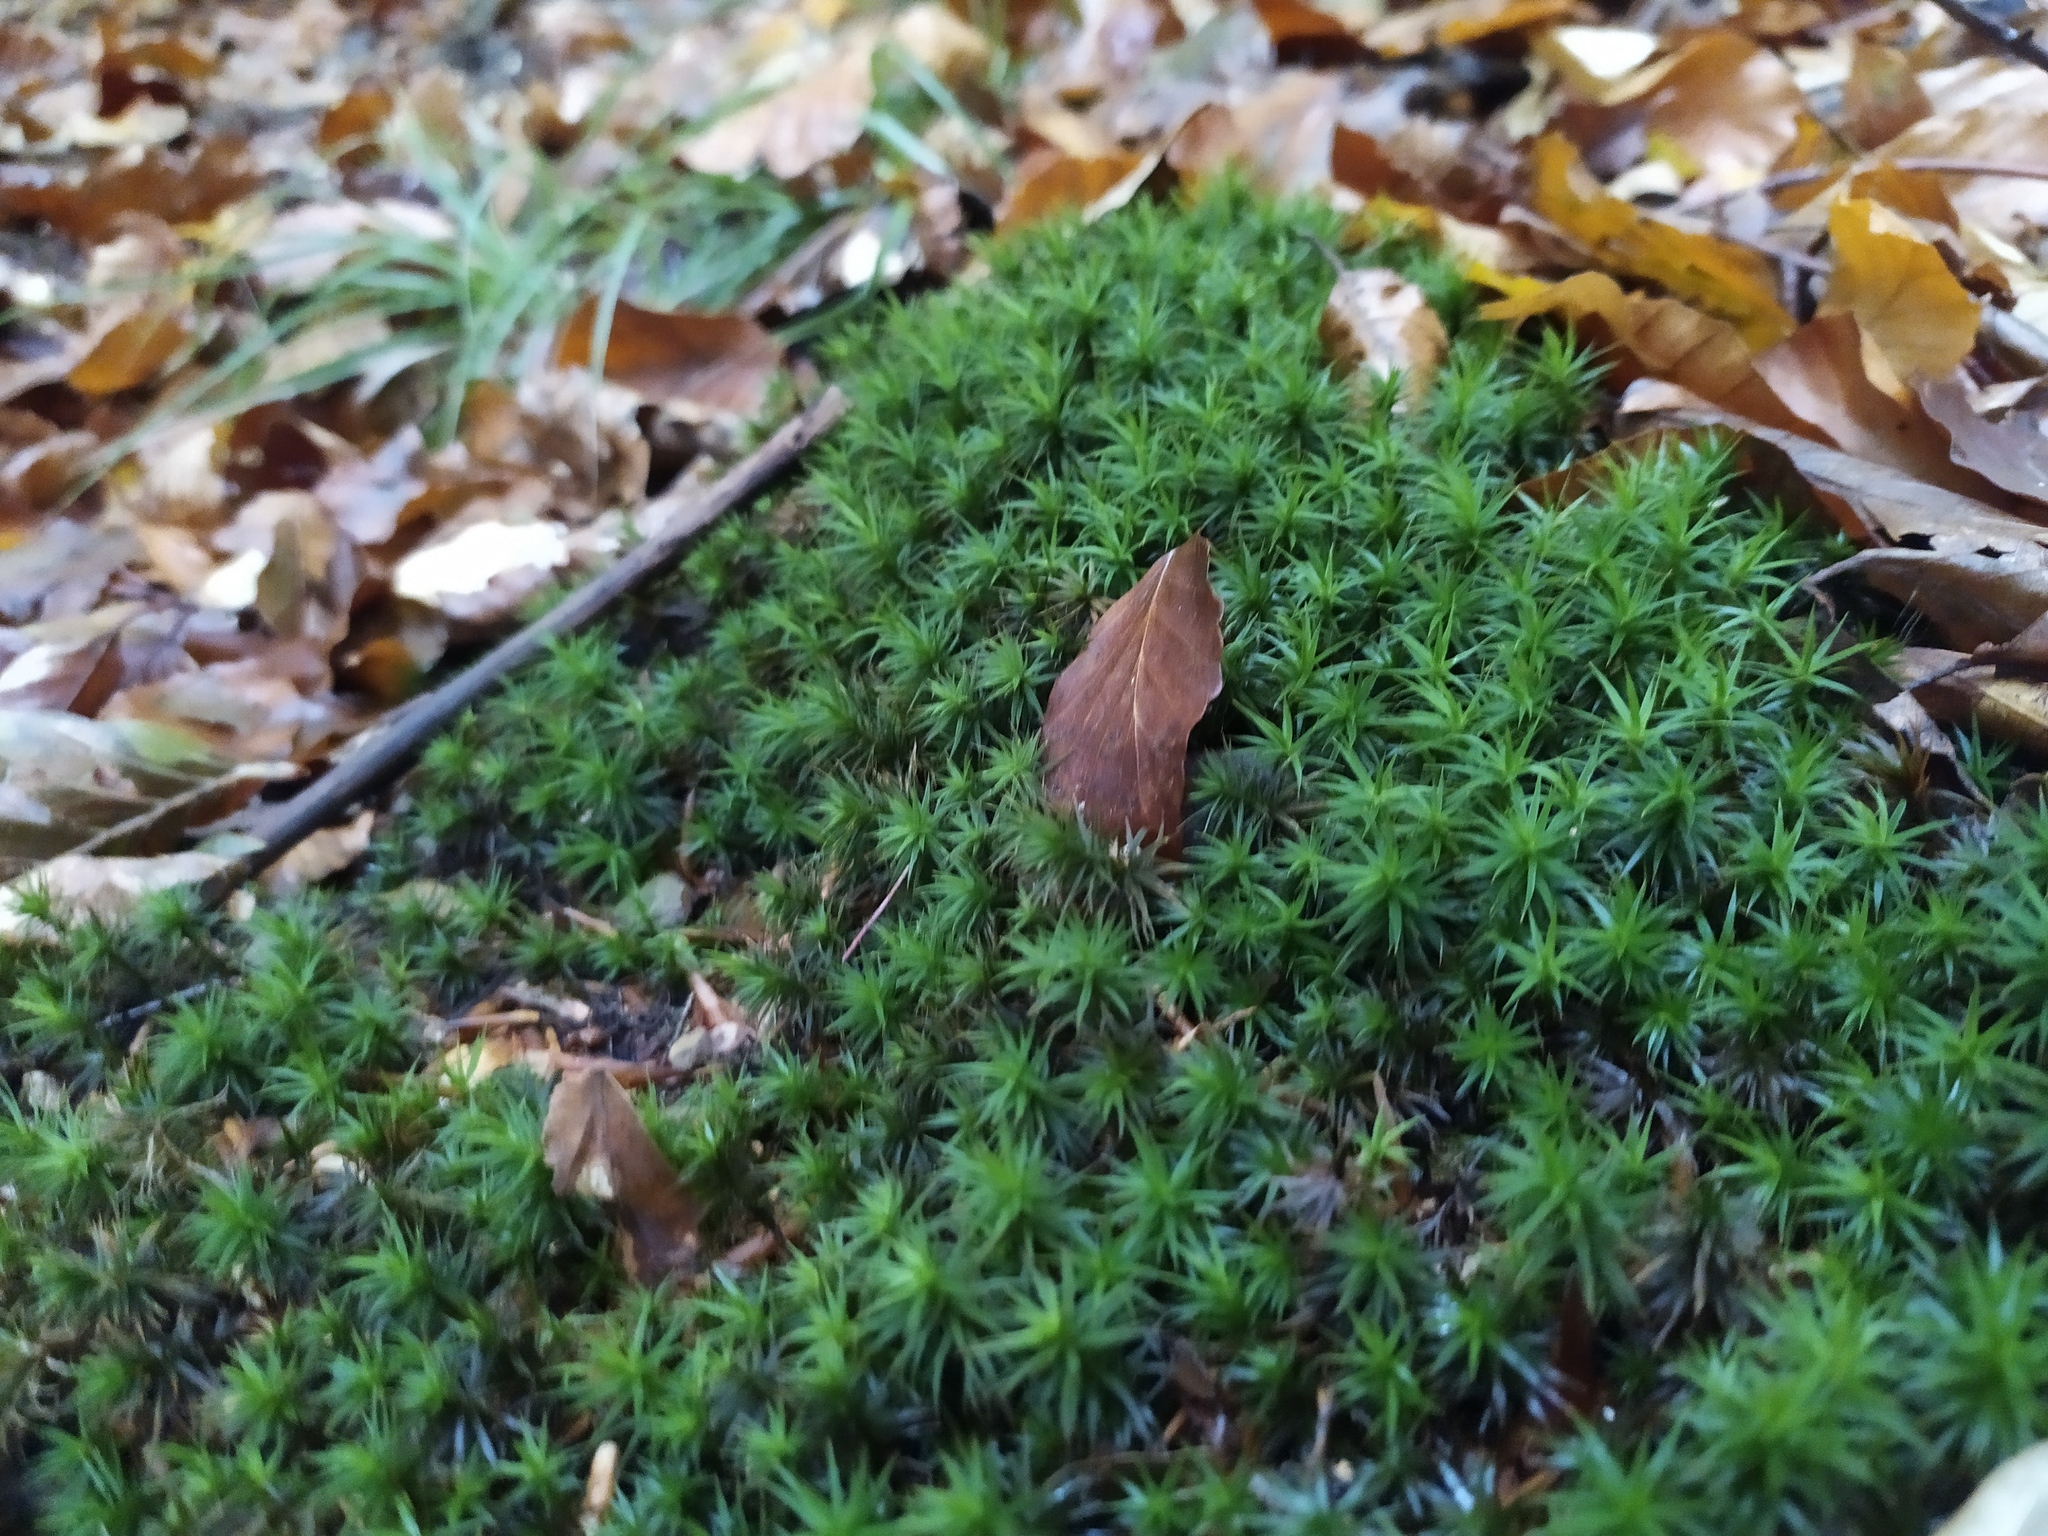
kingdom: Plantae
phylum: Bryophyta
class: Polytrichopsida
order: Polytrichales
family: Polytrichaceae
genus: Polytrichum
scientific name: Polytrichum formosum
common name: Bank haircap moss
